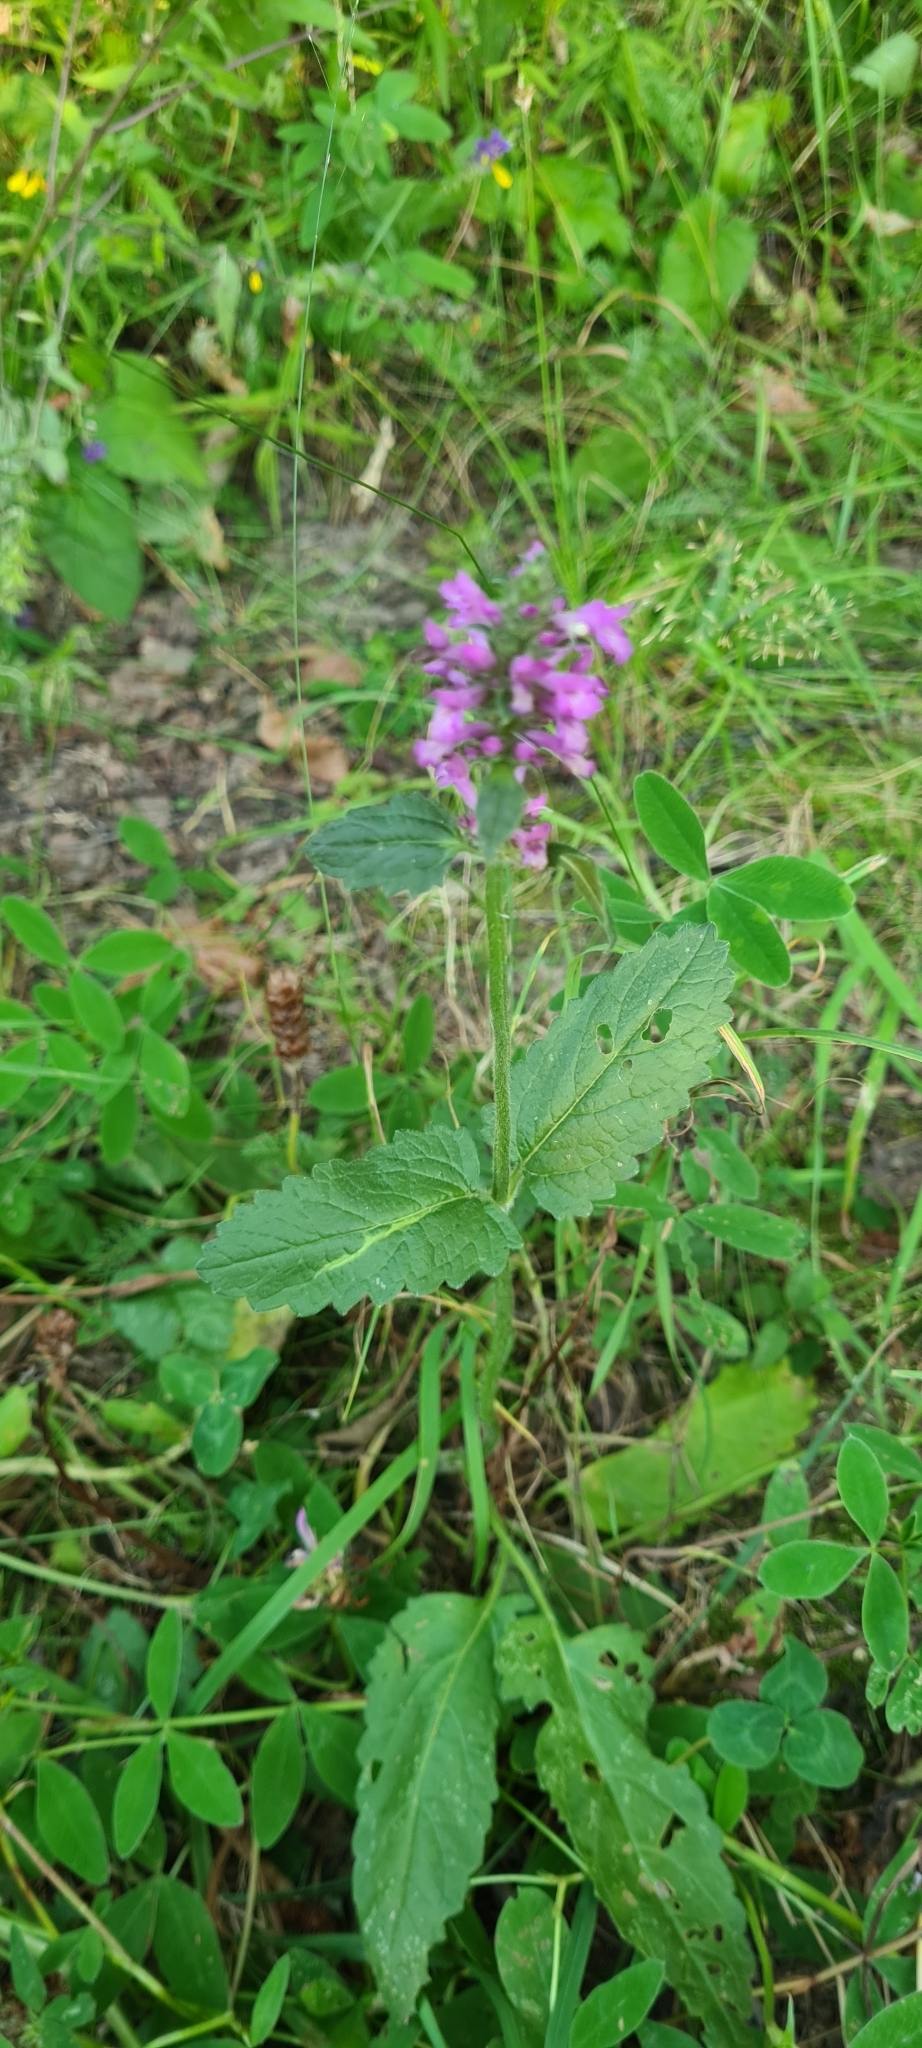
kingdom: Plantae
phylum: Tracheophyta
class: Magnoliopsida
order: Lamiales
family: Lamiaceae
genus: Betonica
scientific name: Betonica officinalis
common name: Bishop's-wort
